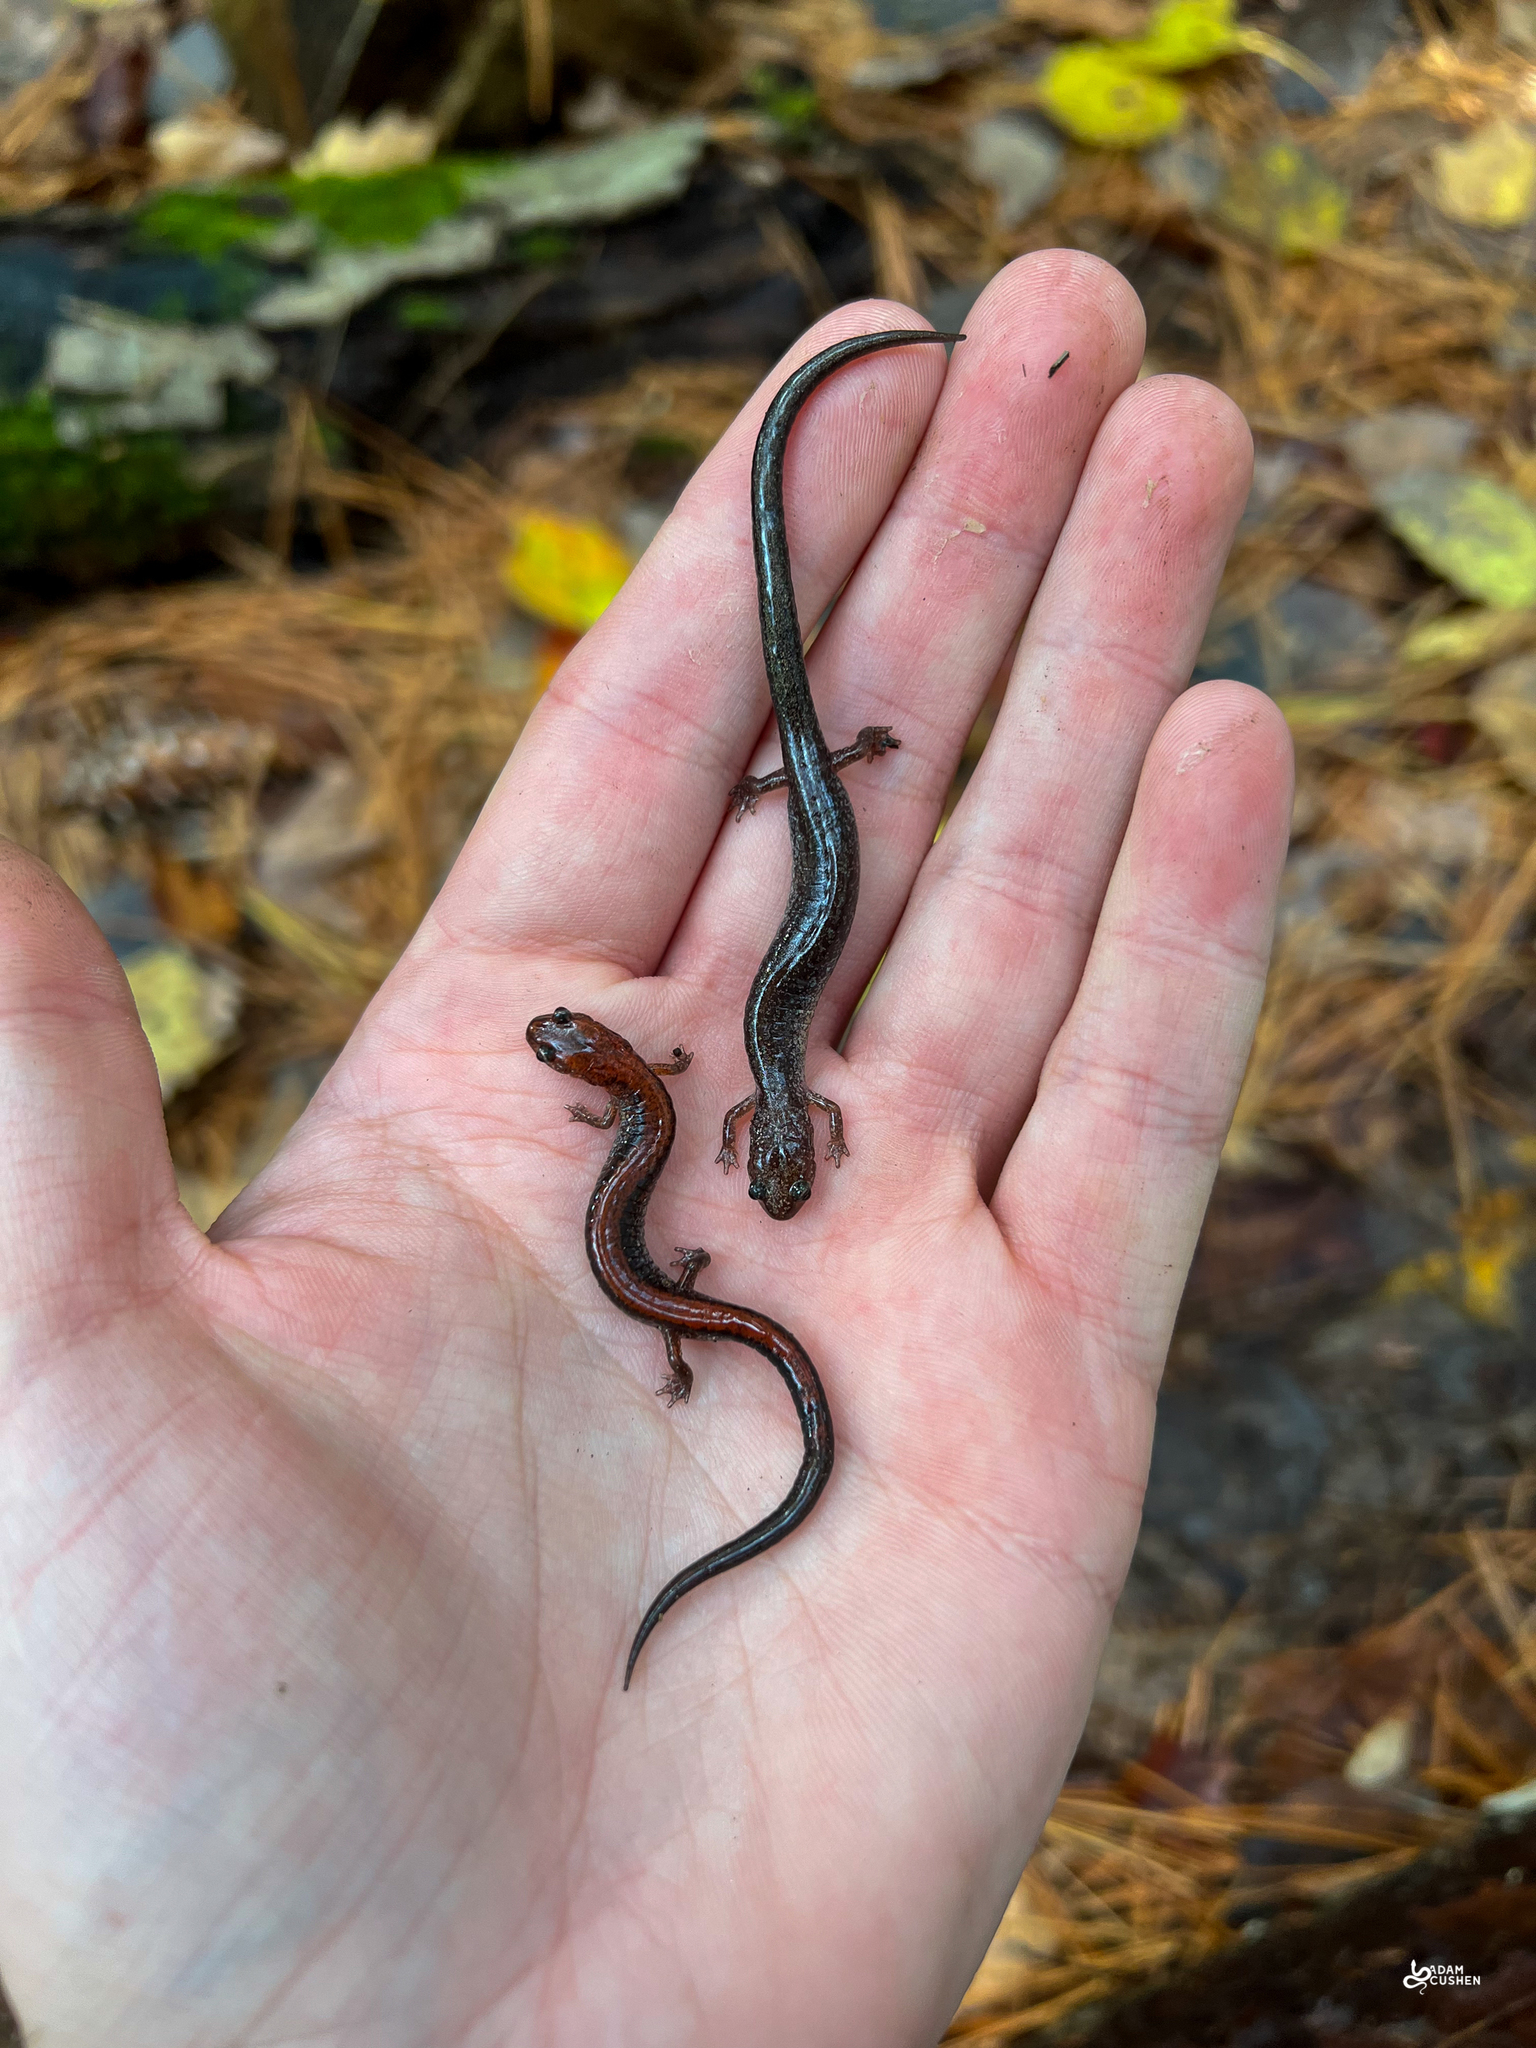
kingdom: Animalia
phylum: Chordata
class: Amphibia
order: Caudata
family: Plethodontidae
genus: Plethodon
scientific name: Plethodon cinereus
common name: Redback salamander
